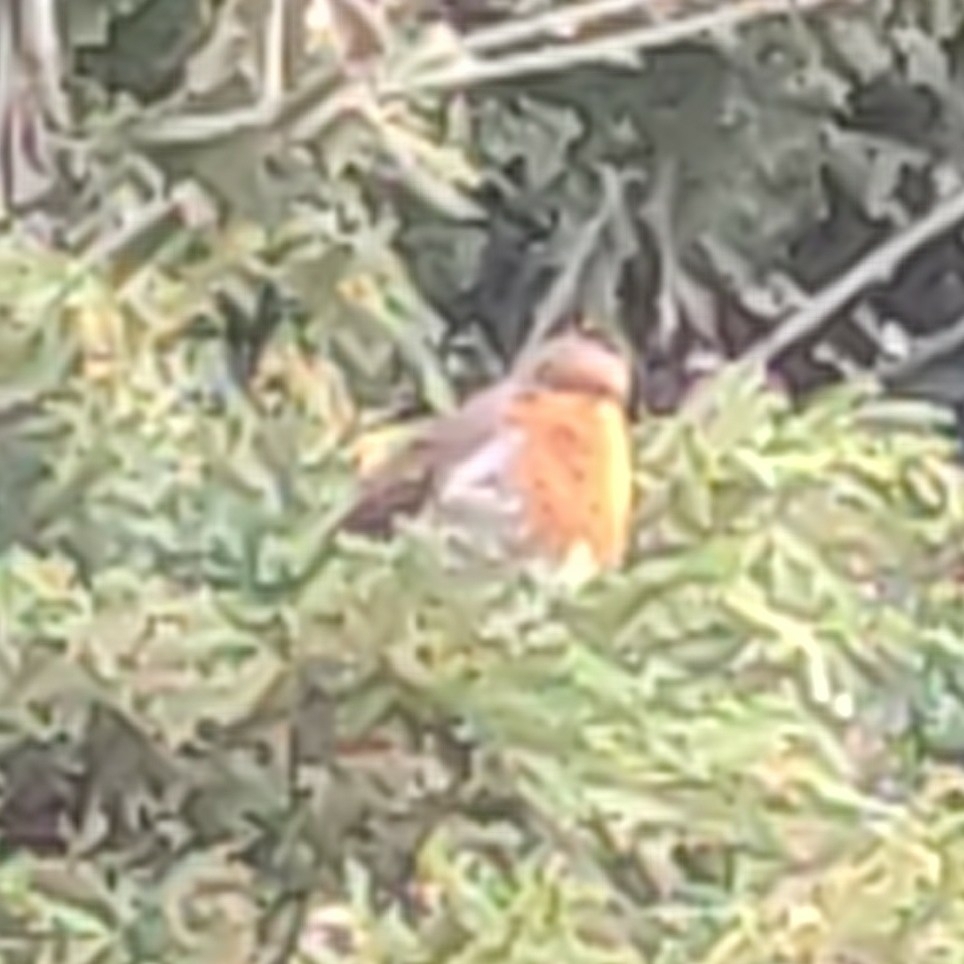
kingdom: Animalia
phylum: Chordata
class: Aves
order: Passeriformes
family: Muscicapidae
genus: Erithacus
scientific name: Erithacus rubecula
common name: European robin
